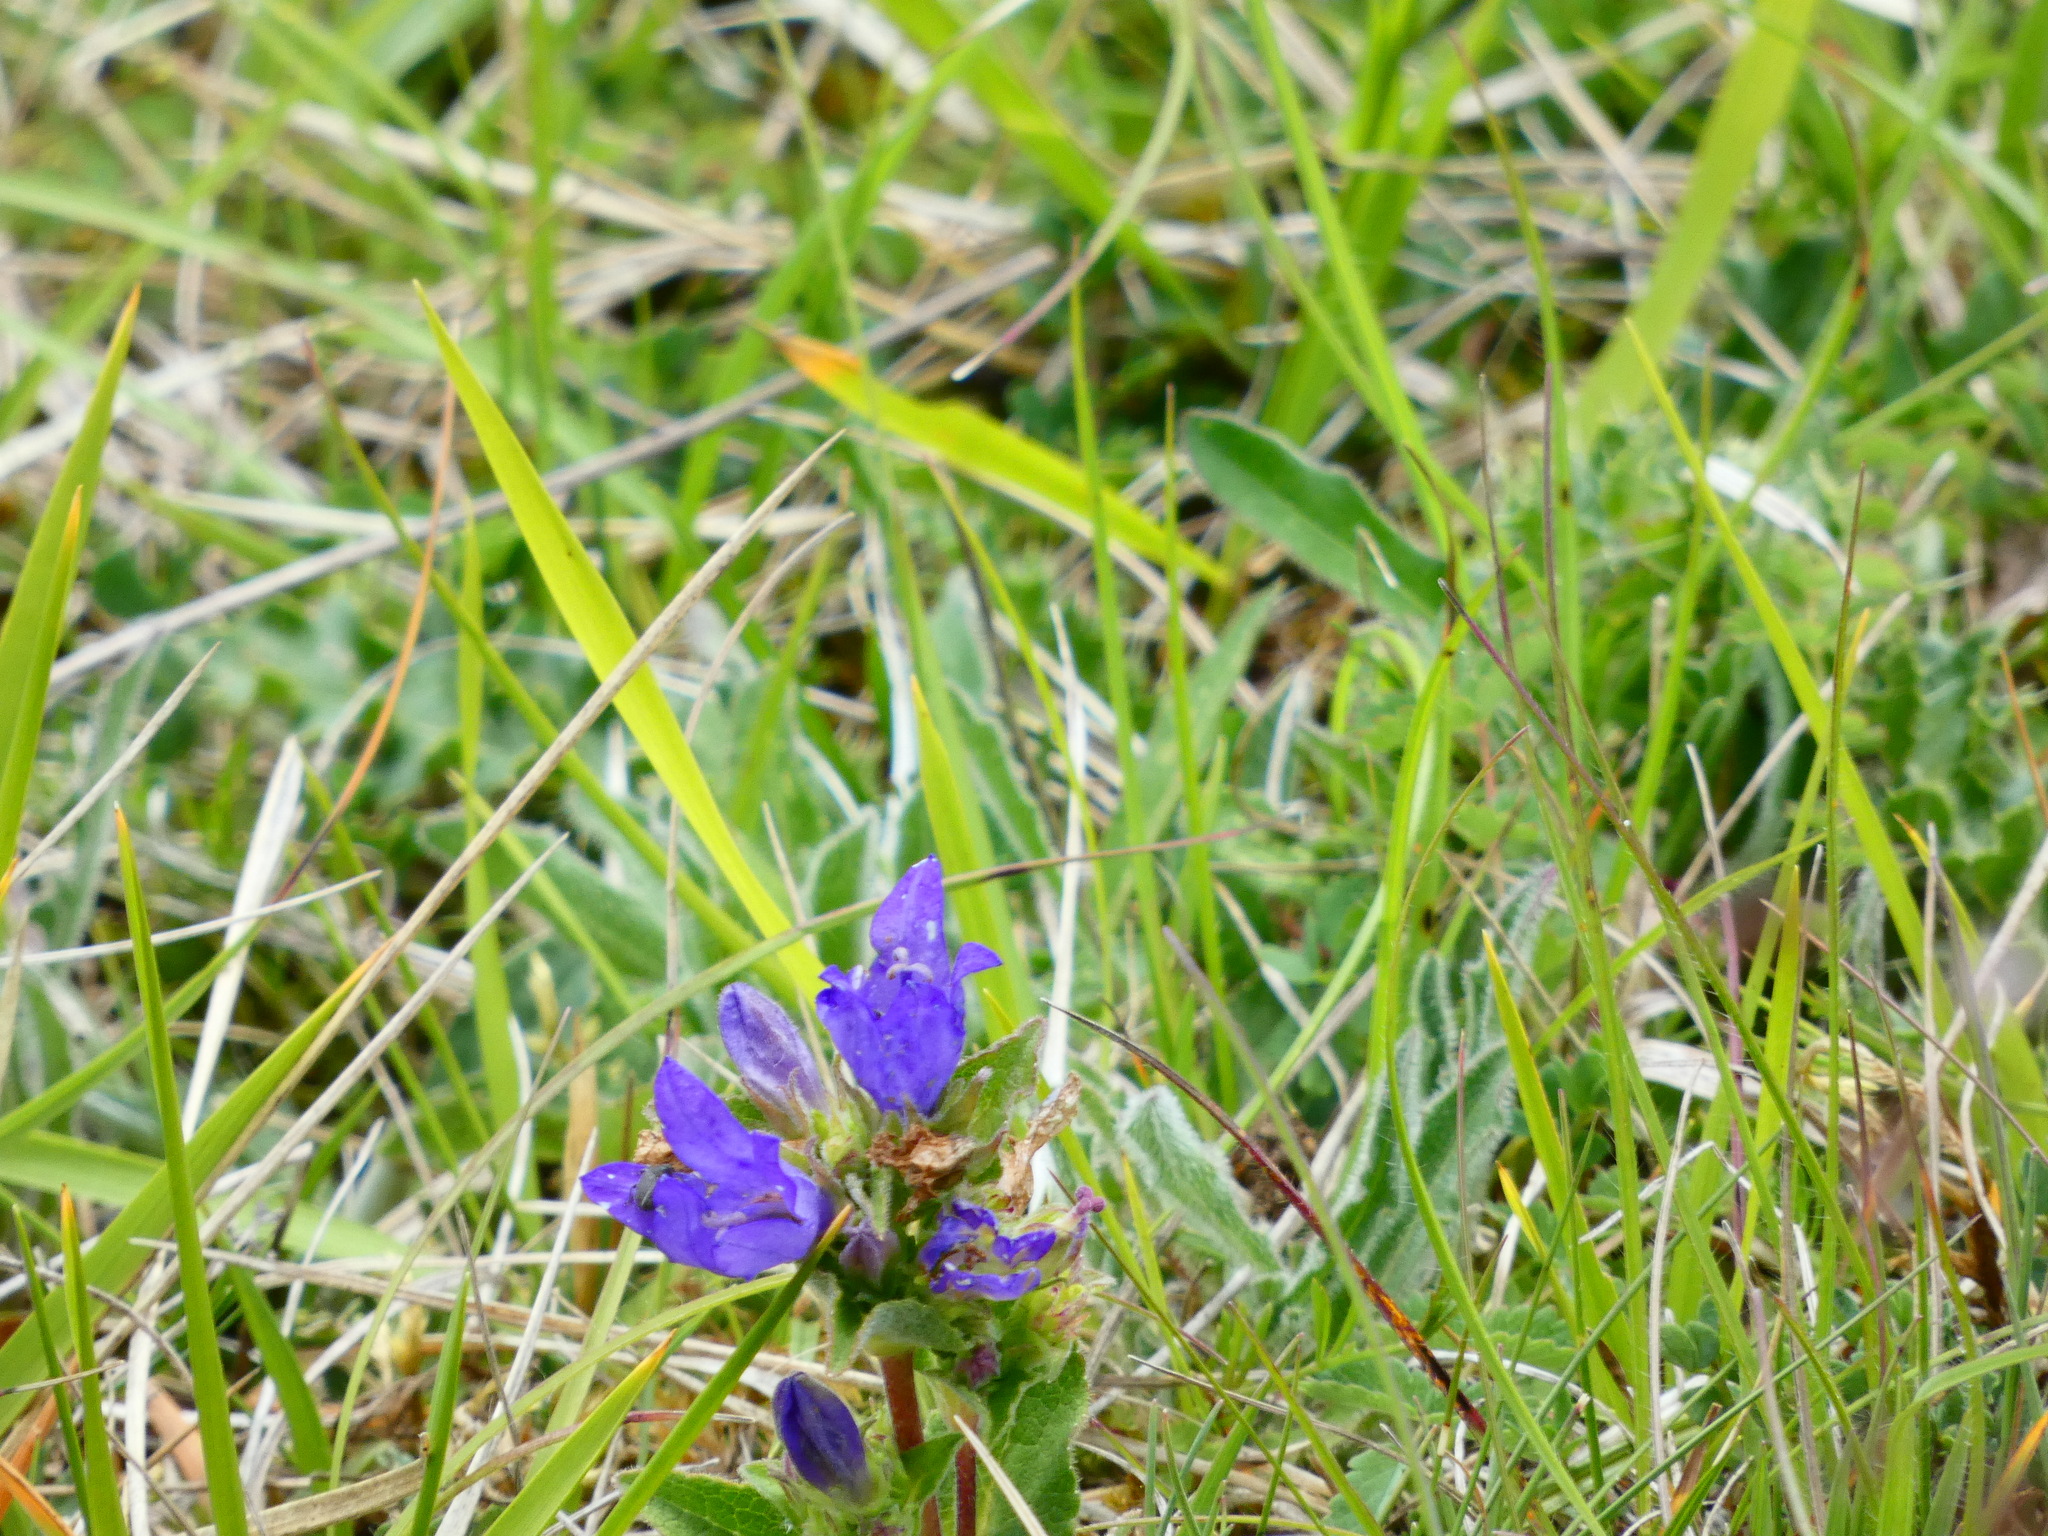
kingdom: Plantae
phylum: Tracheophyta
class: Magnoliopsida
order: Asterales
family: Campanulaceae
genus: Campanula
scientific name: Campanula glomerata
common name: Clustered bellflower
